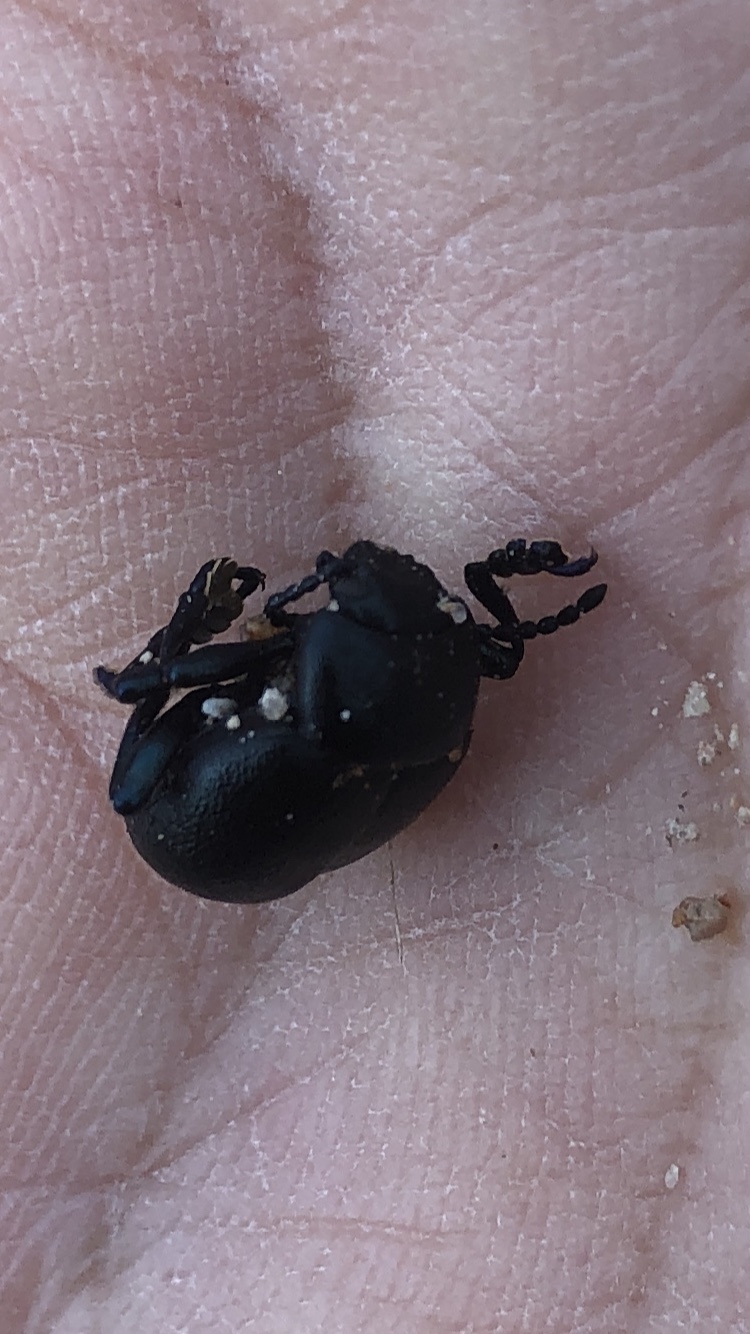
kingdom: Animalia
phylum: Arthropoda
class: Insecta
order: Coleoptera
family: Chrysomelidae
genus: Timarcha
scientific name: Timarcha goettingensis
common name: Small bloody-nosed beetle
